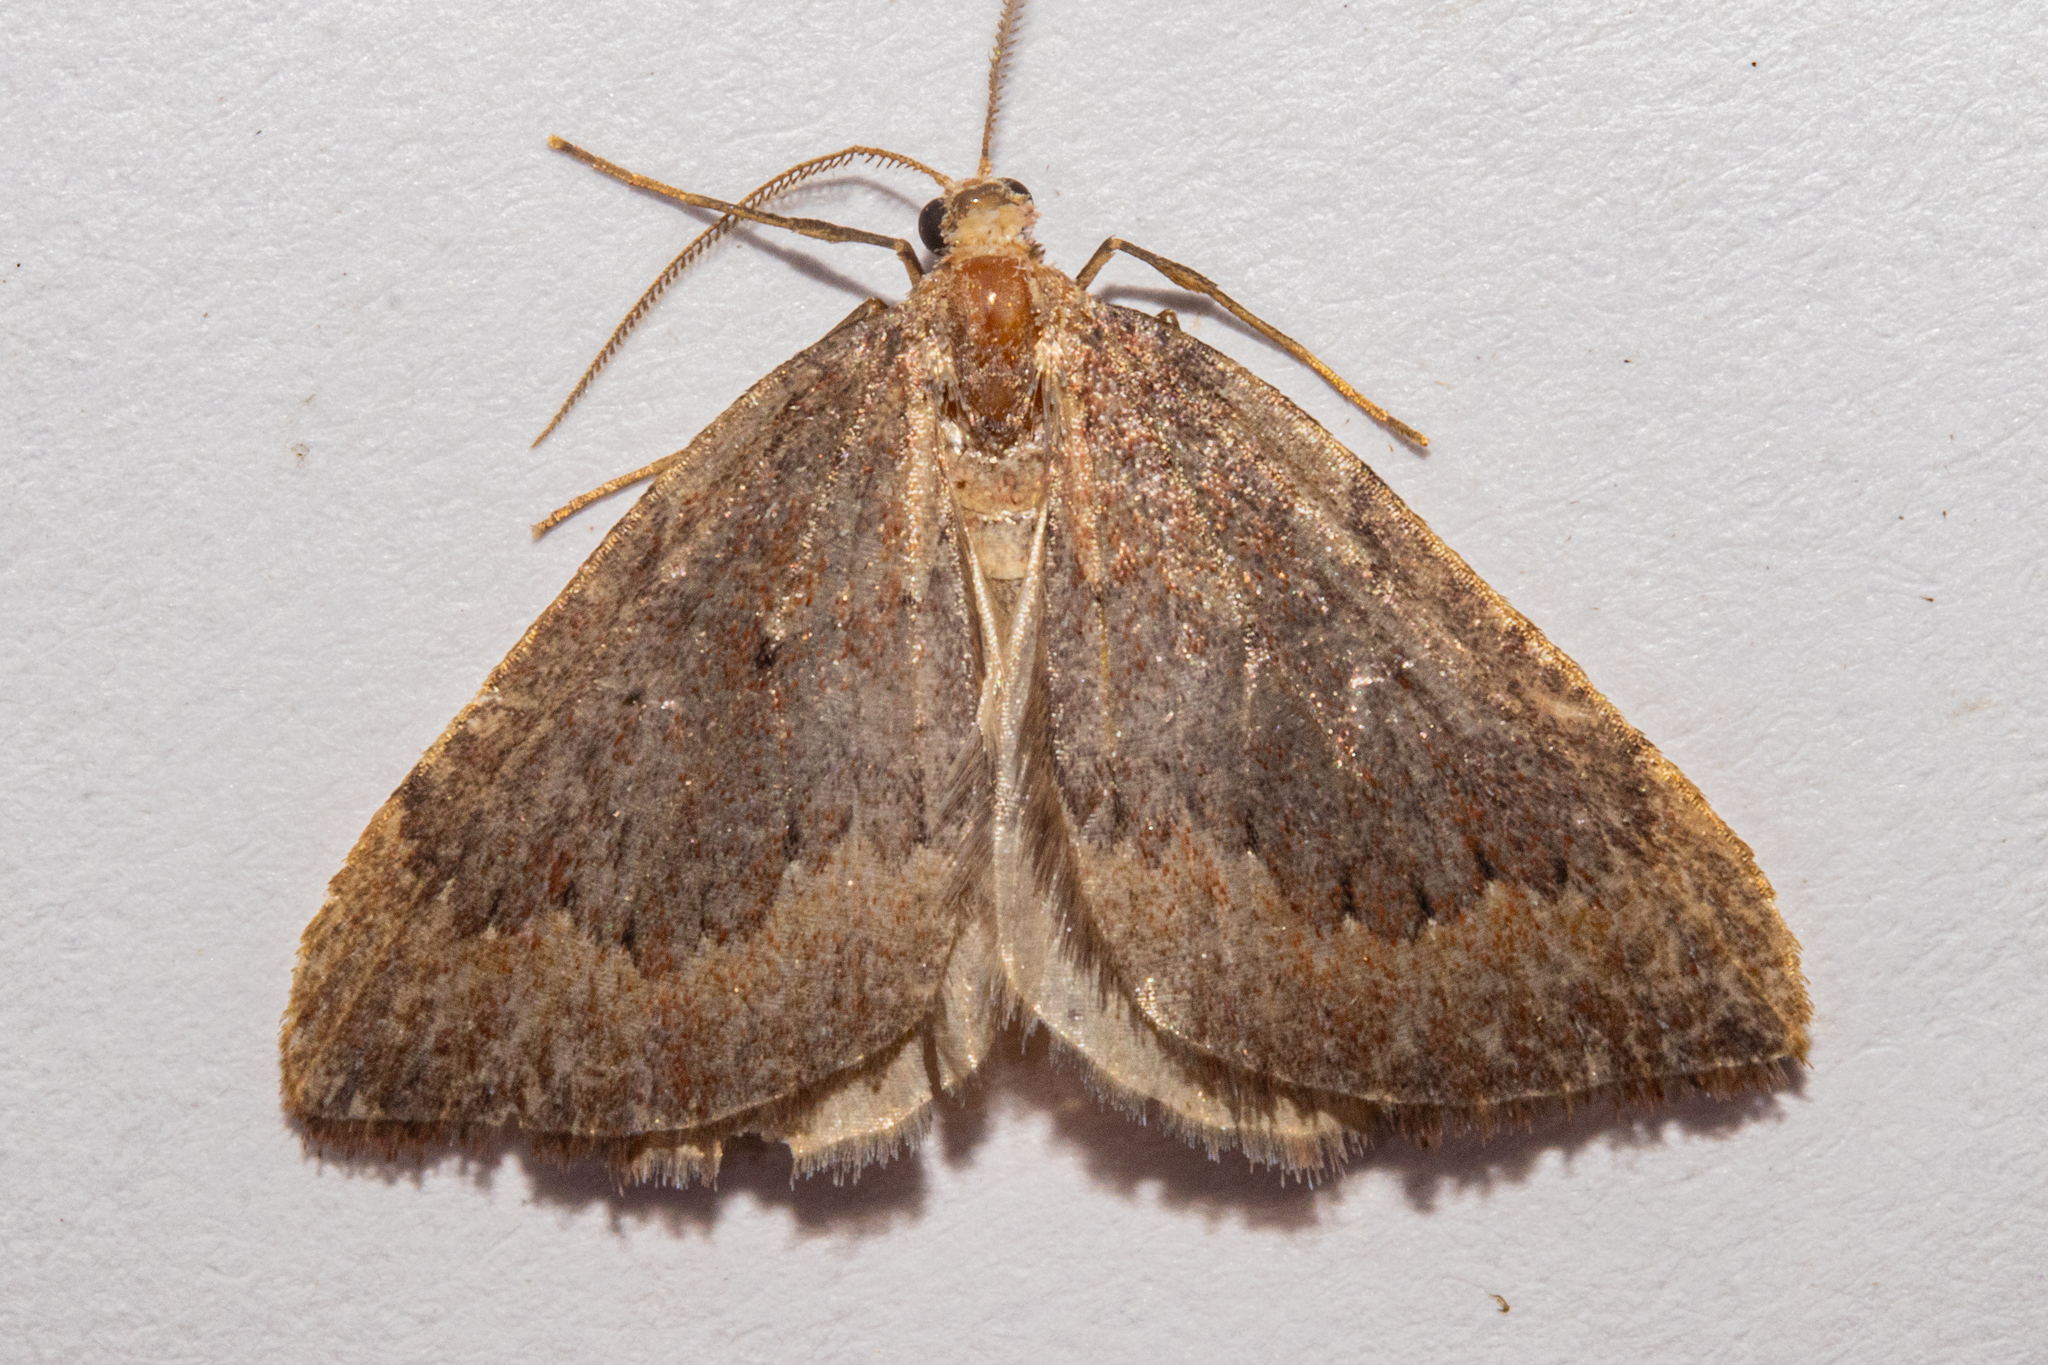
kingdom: Animalia
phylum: Arthropoda
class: Insecta
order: Lepidoptera
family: Geometridae
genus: Xanthorhoe
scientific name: Xanthorhoe occulta
